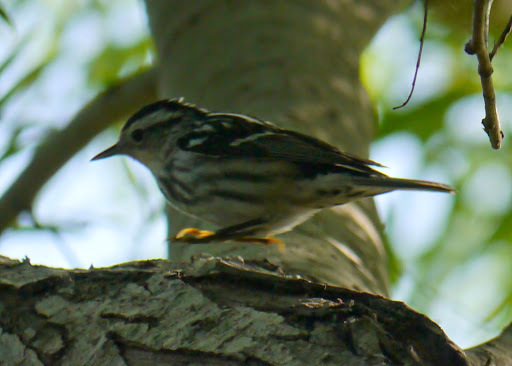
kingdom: Animalia
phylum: Chordata
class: Aves
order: Passeriformes
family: Parulidae
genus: Mniotilta
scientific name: Mniotilta varia
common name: Black-and-white warbler
